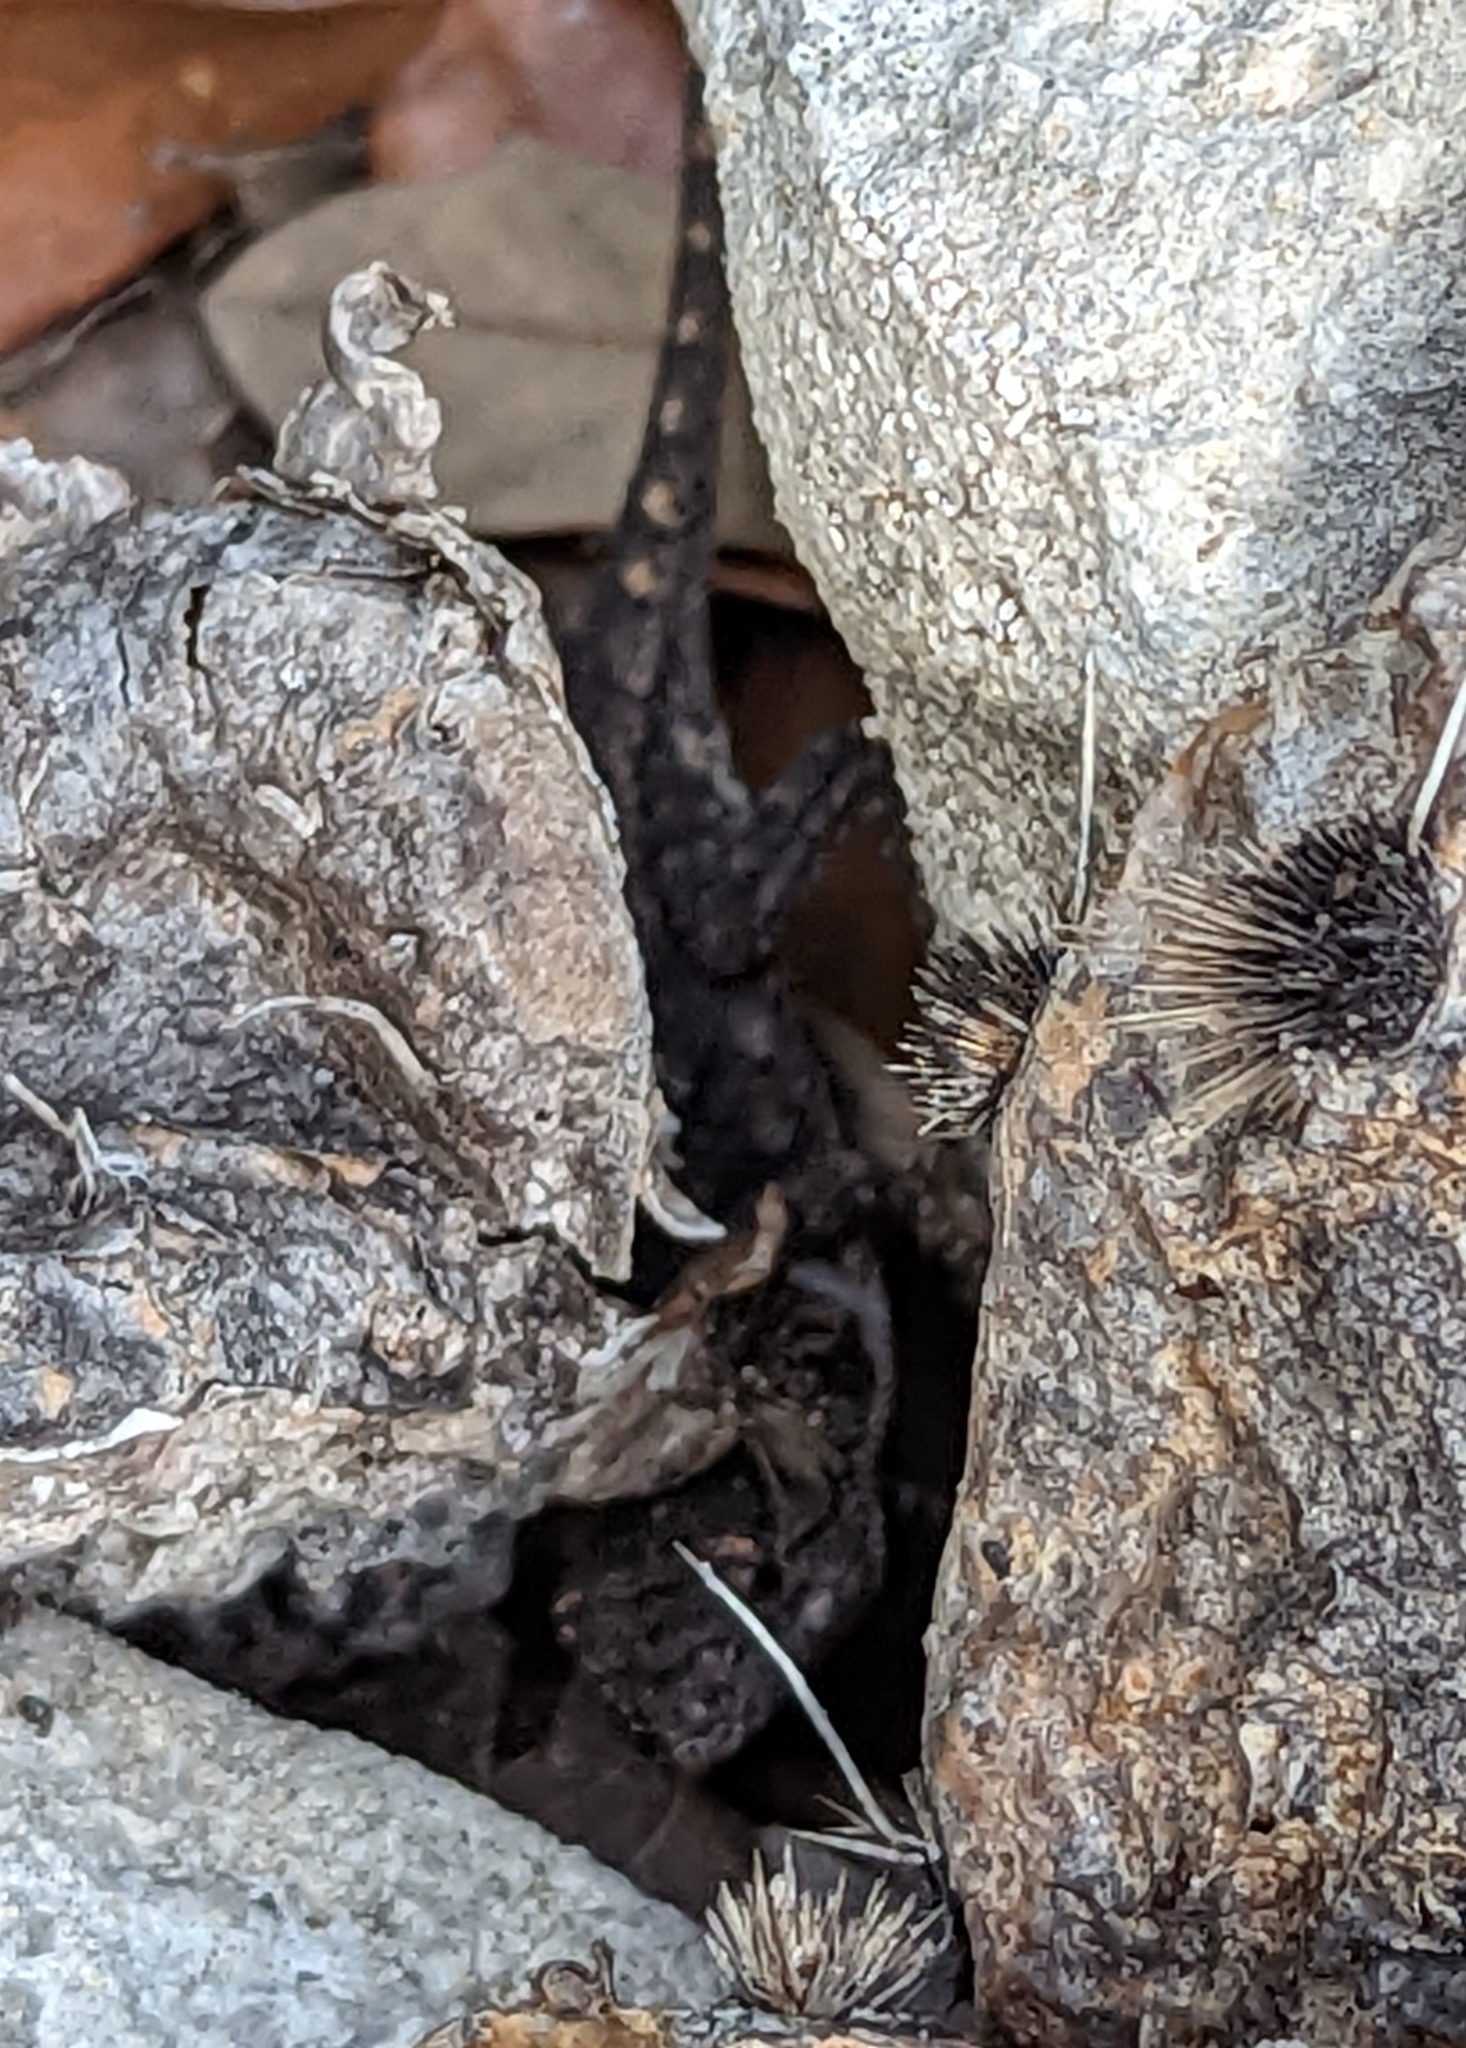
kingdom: Animalia
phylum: Chordata
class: Squamata
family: Phrynosomatidae
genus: Sceloporus
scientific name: Sceloporus
